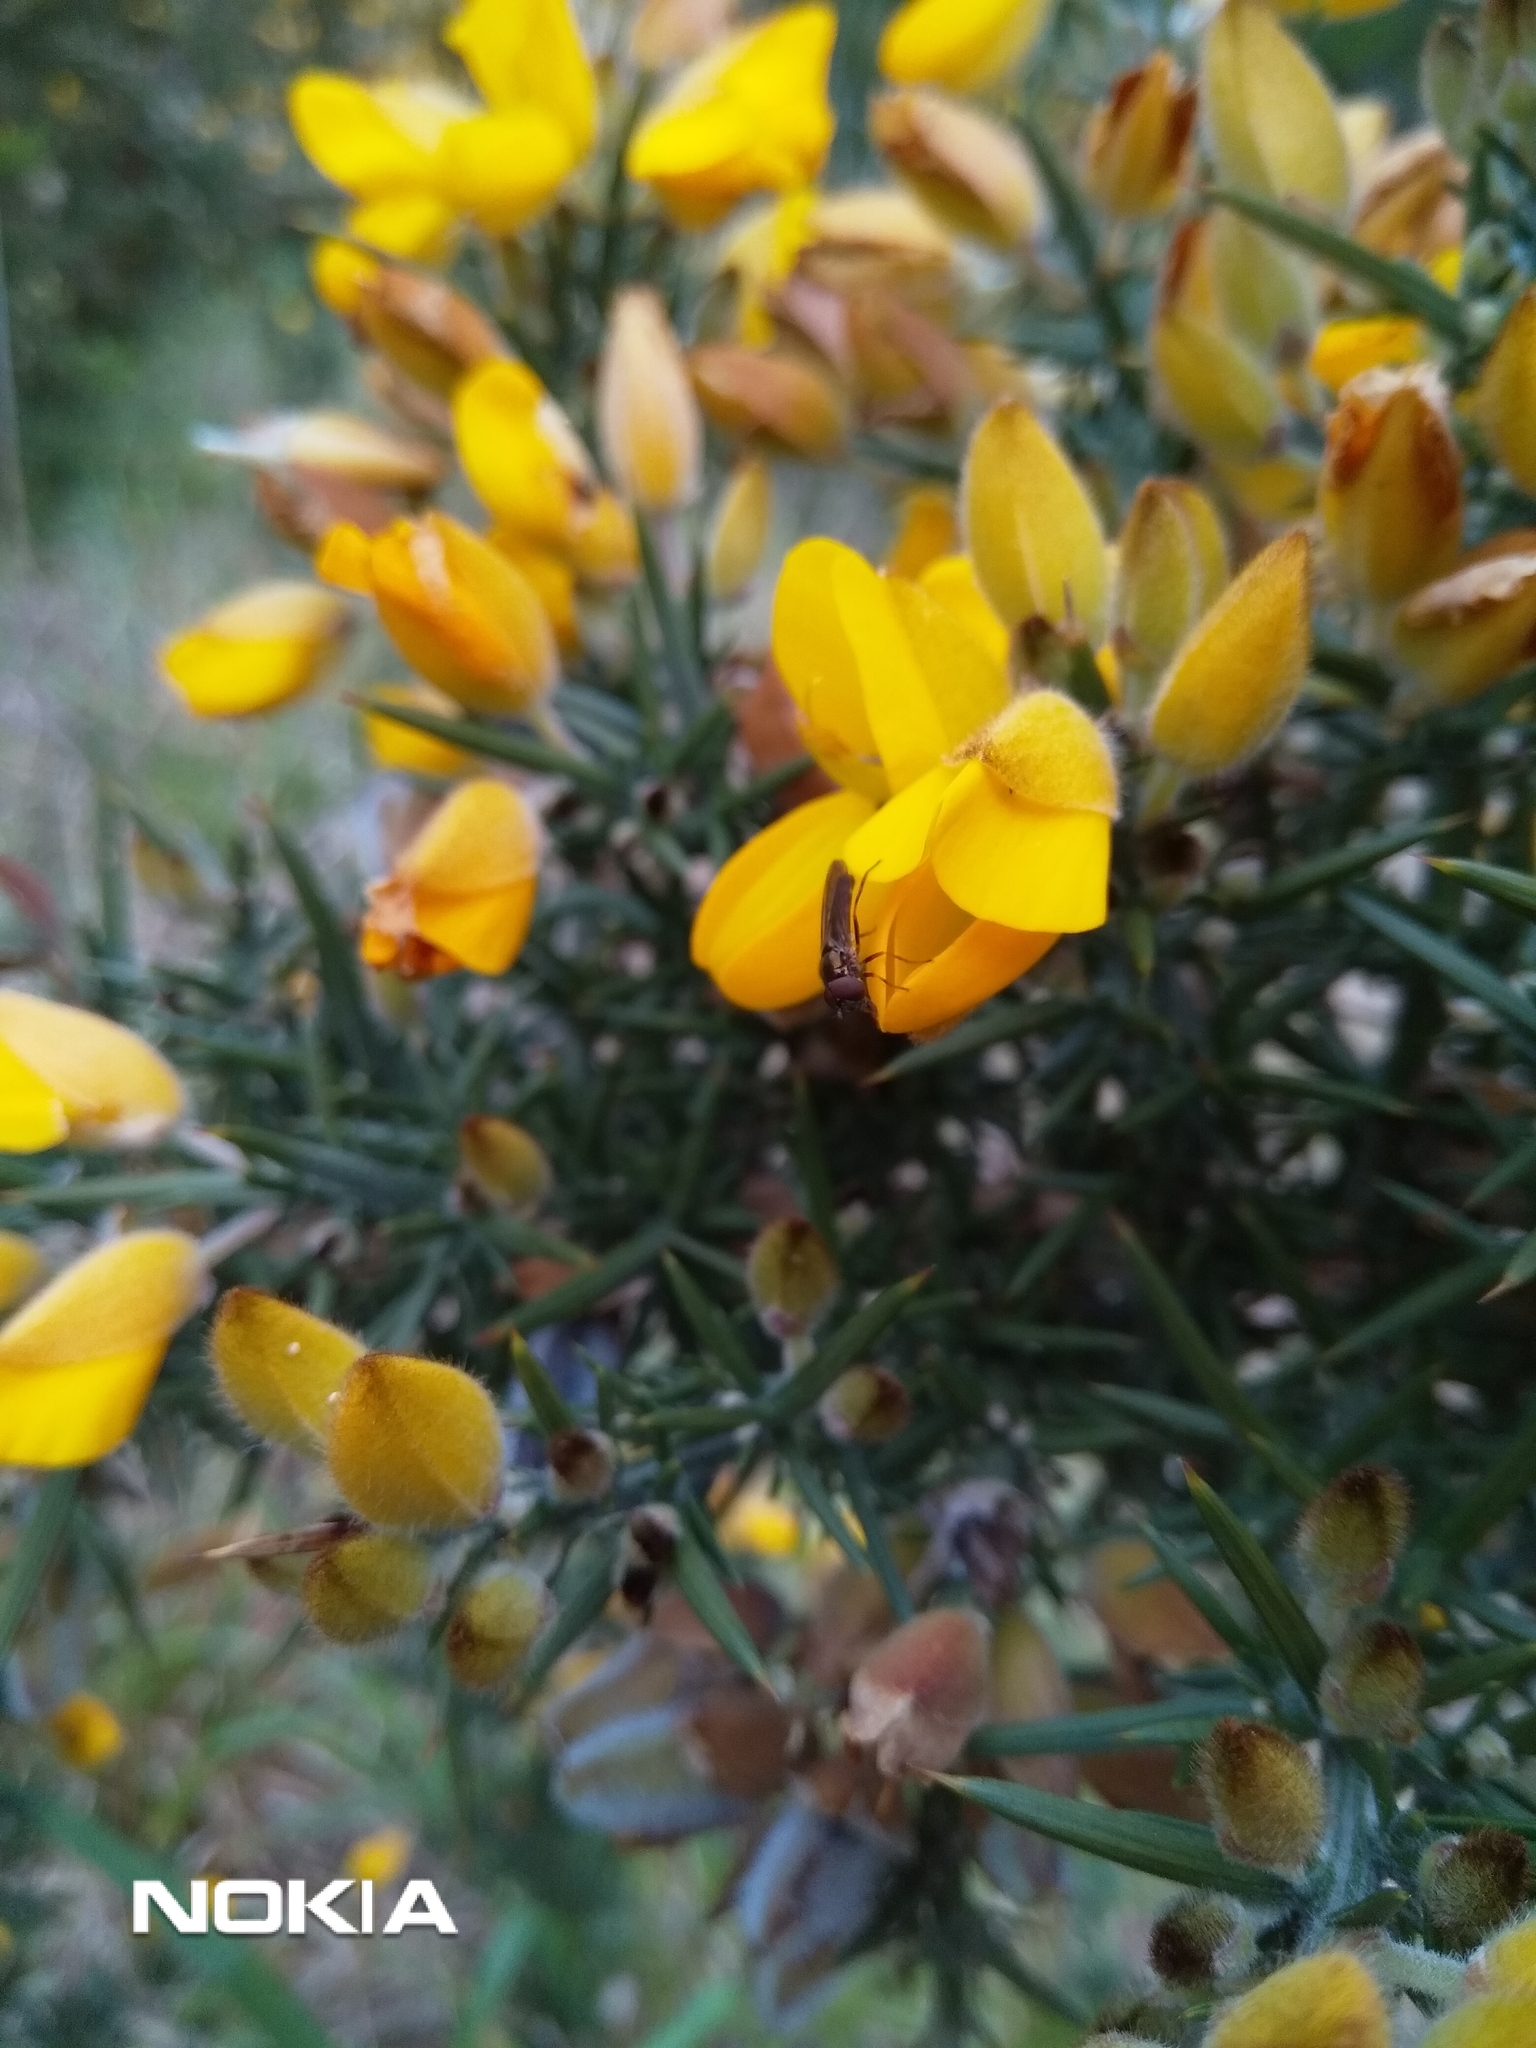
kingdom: Plantae
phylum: Tracheophyta
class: Magnoliopsida
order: Fabales
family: Fabaceae
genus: Ulex
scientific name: Ulex europaeus
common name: Common gorse
